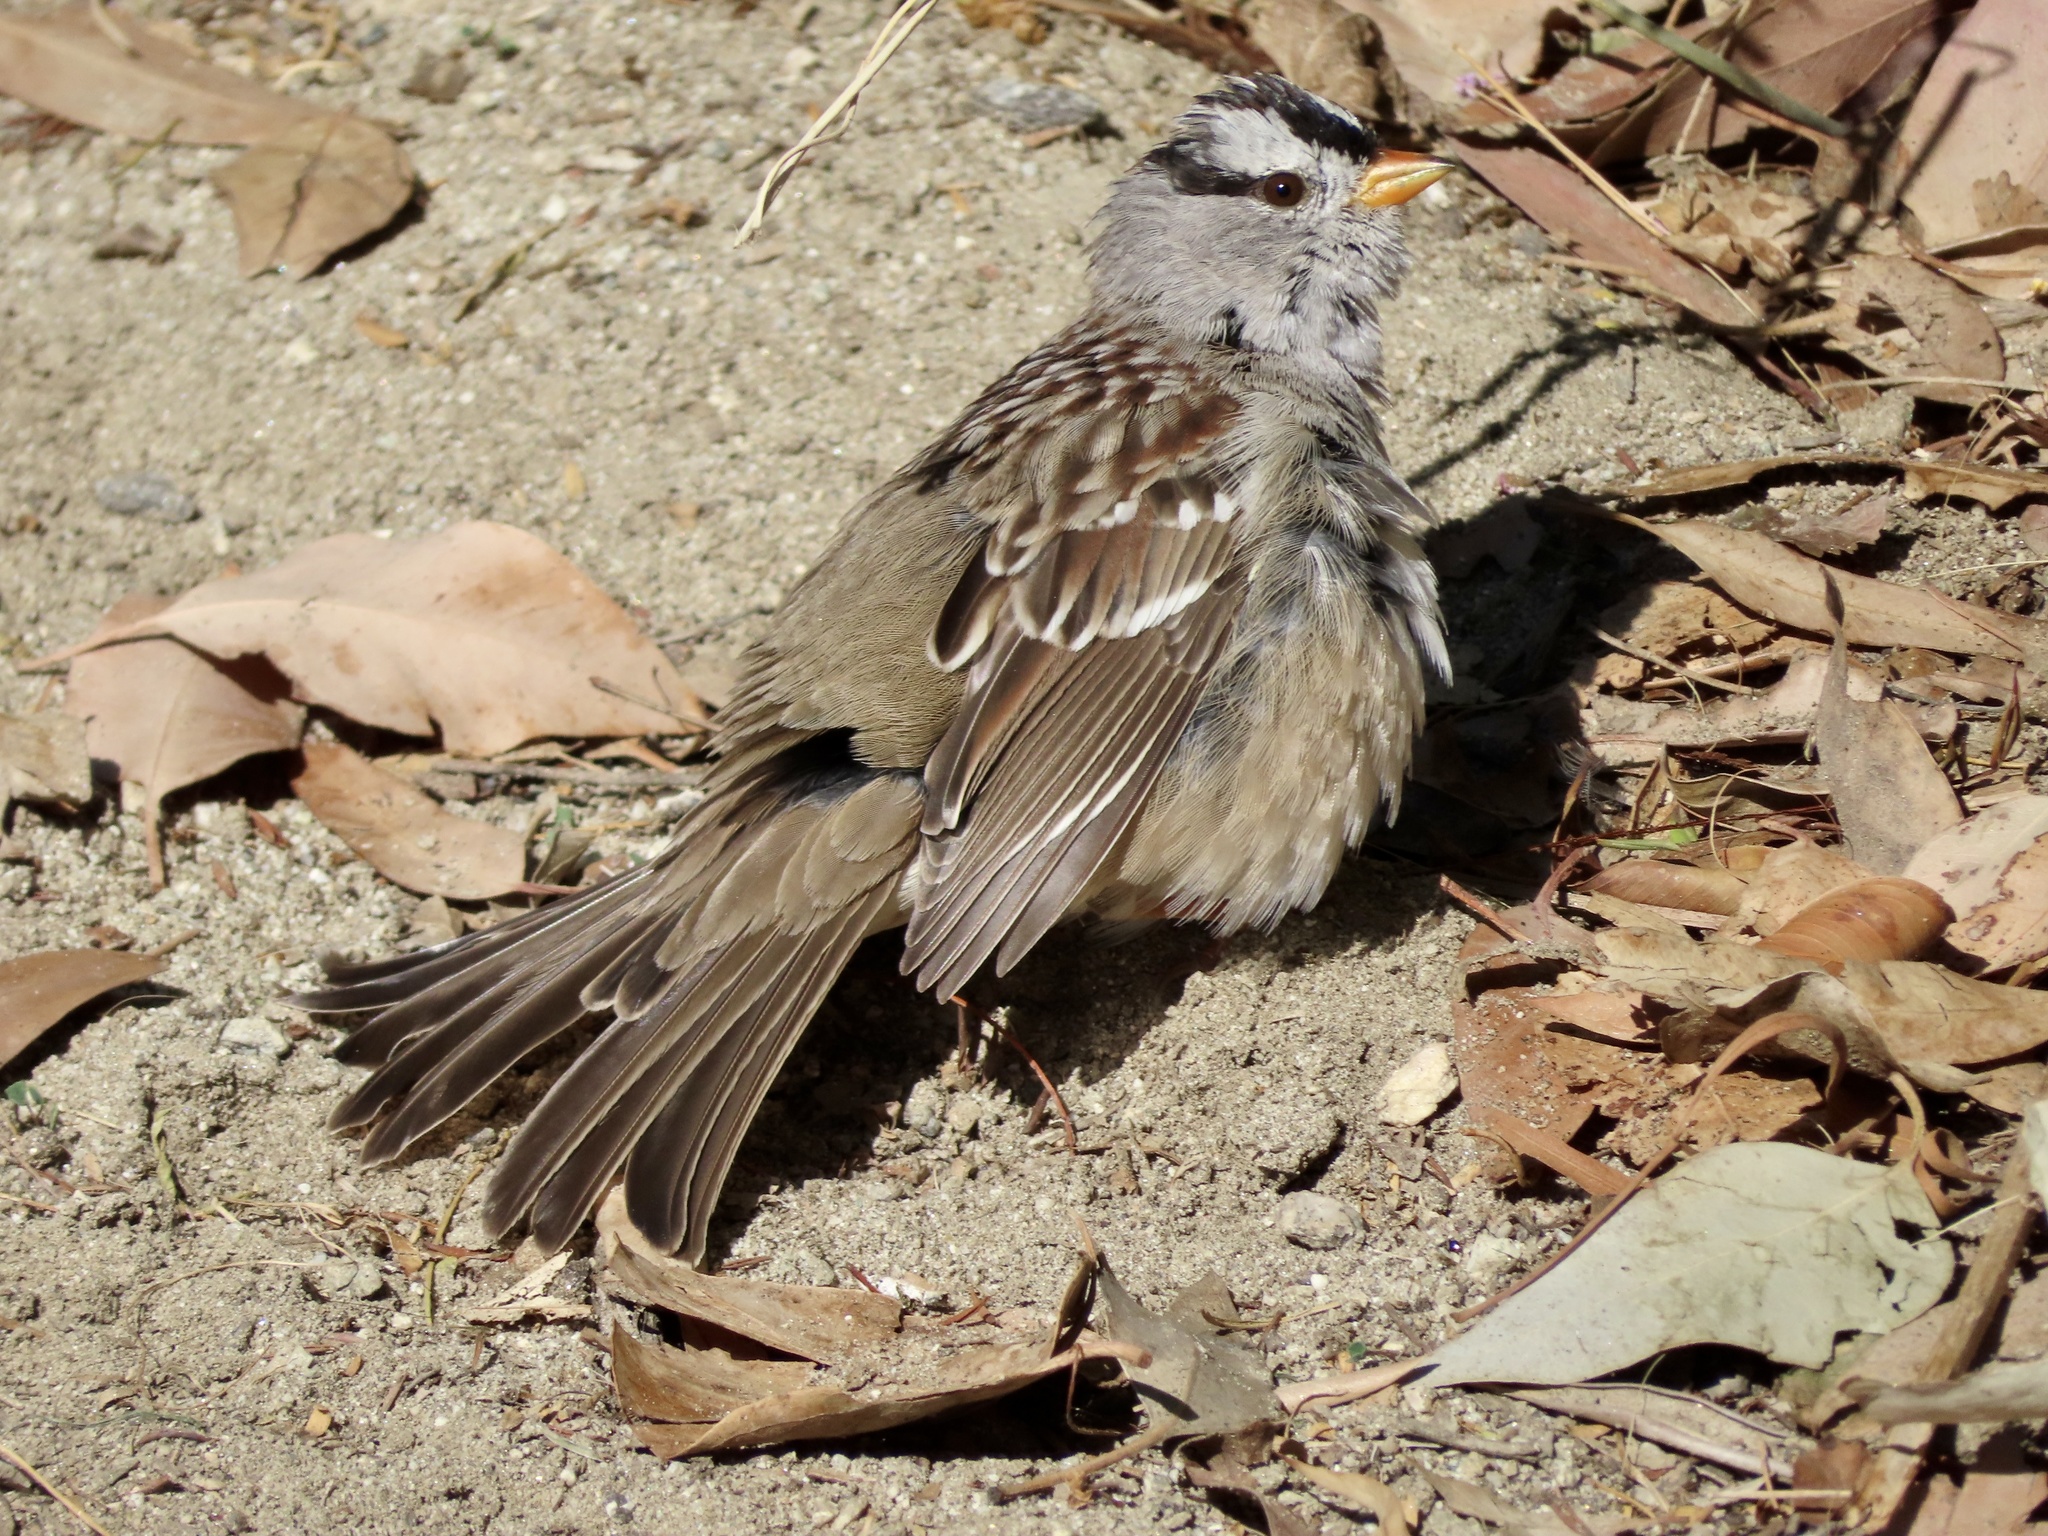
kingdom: Animalia
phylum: Chordata
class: Aves
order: Passeriformes
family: Passerellidae
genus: Zonotrichia
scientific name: Zonotrichia leucophrys
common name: White-crowned sparrow
